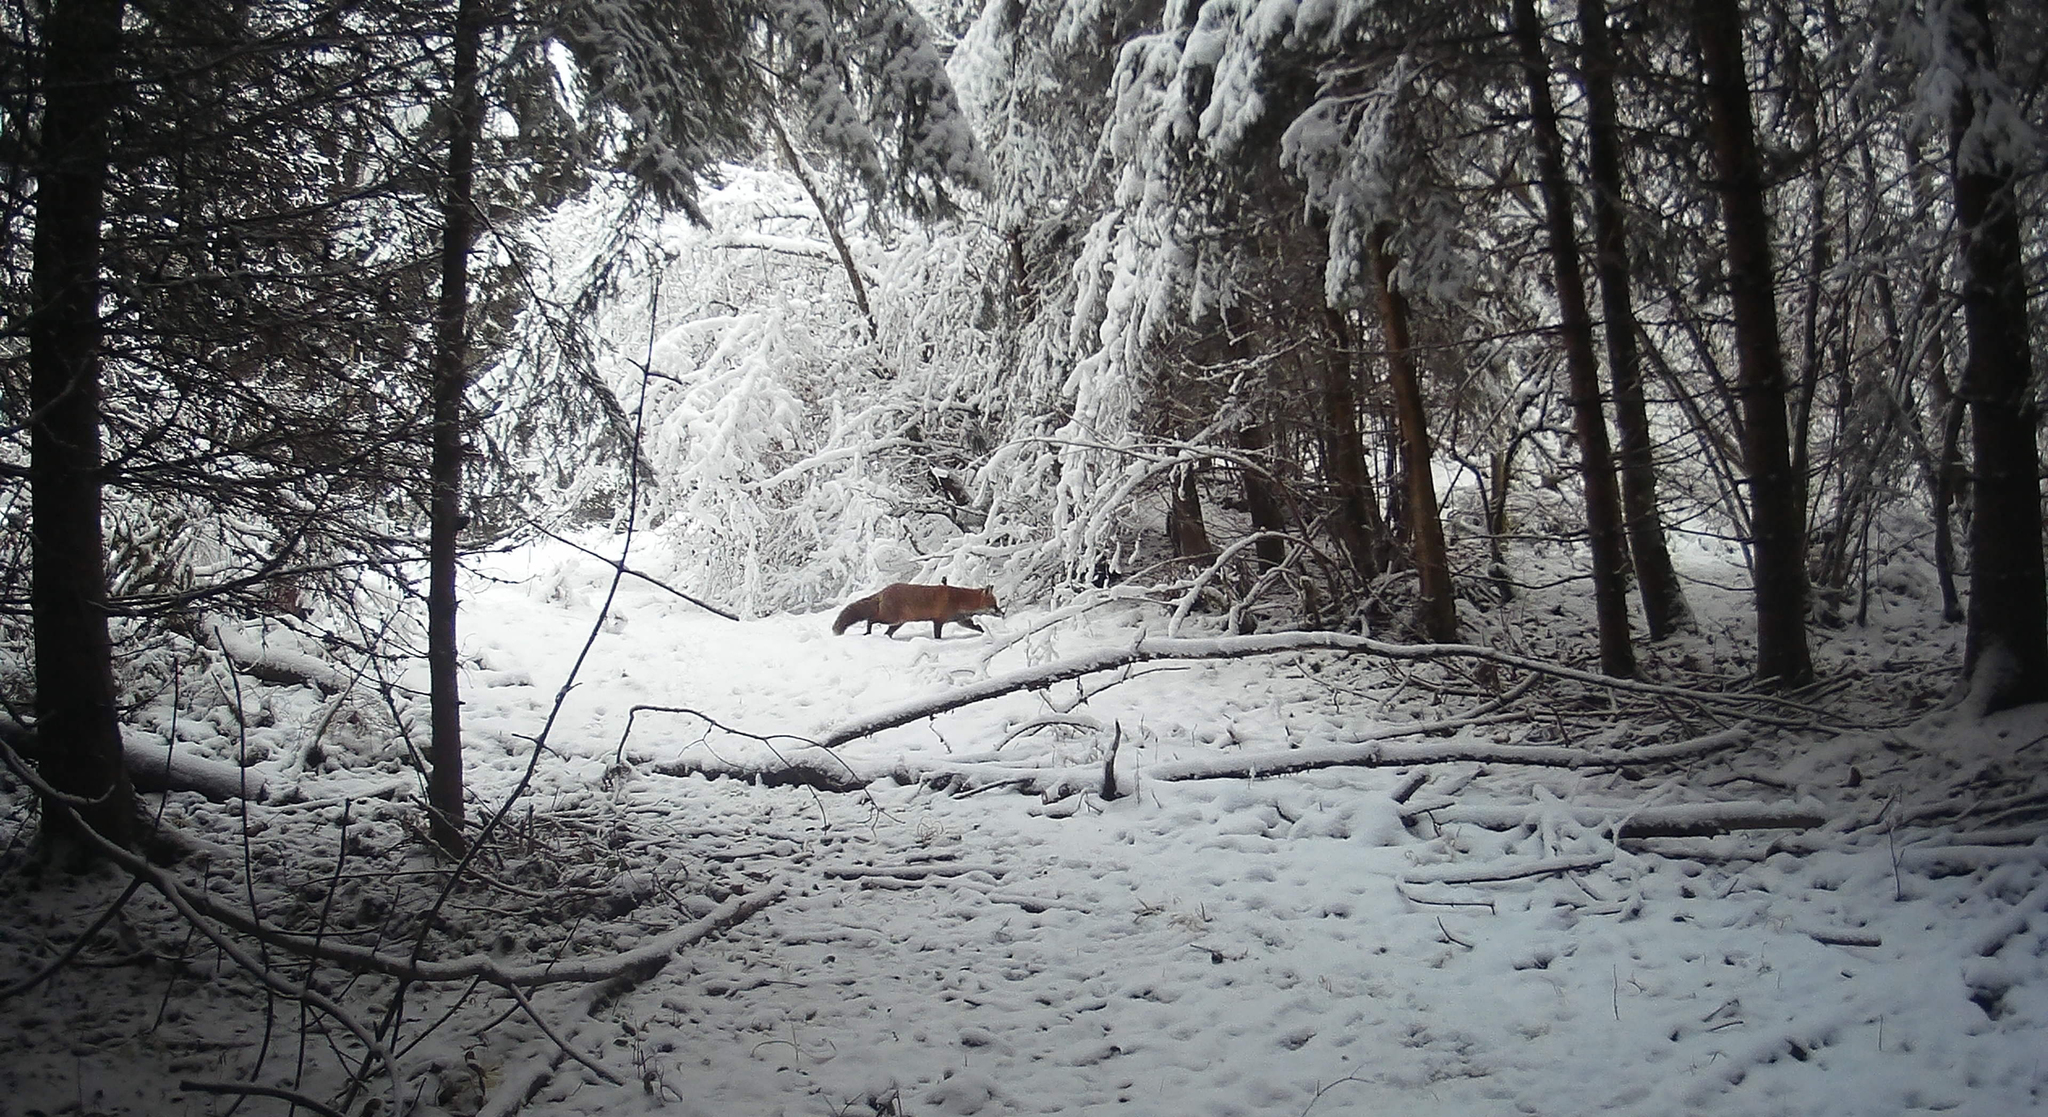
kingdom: Animalia
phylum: Chordata
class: Mammalia
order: Carnivora
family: Canidae
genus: Vulpes
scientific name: Vulpes vulpes
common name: Red fox
